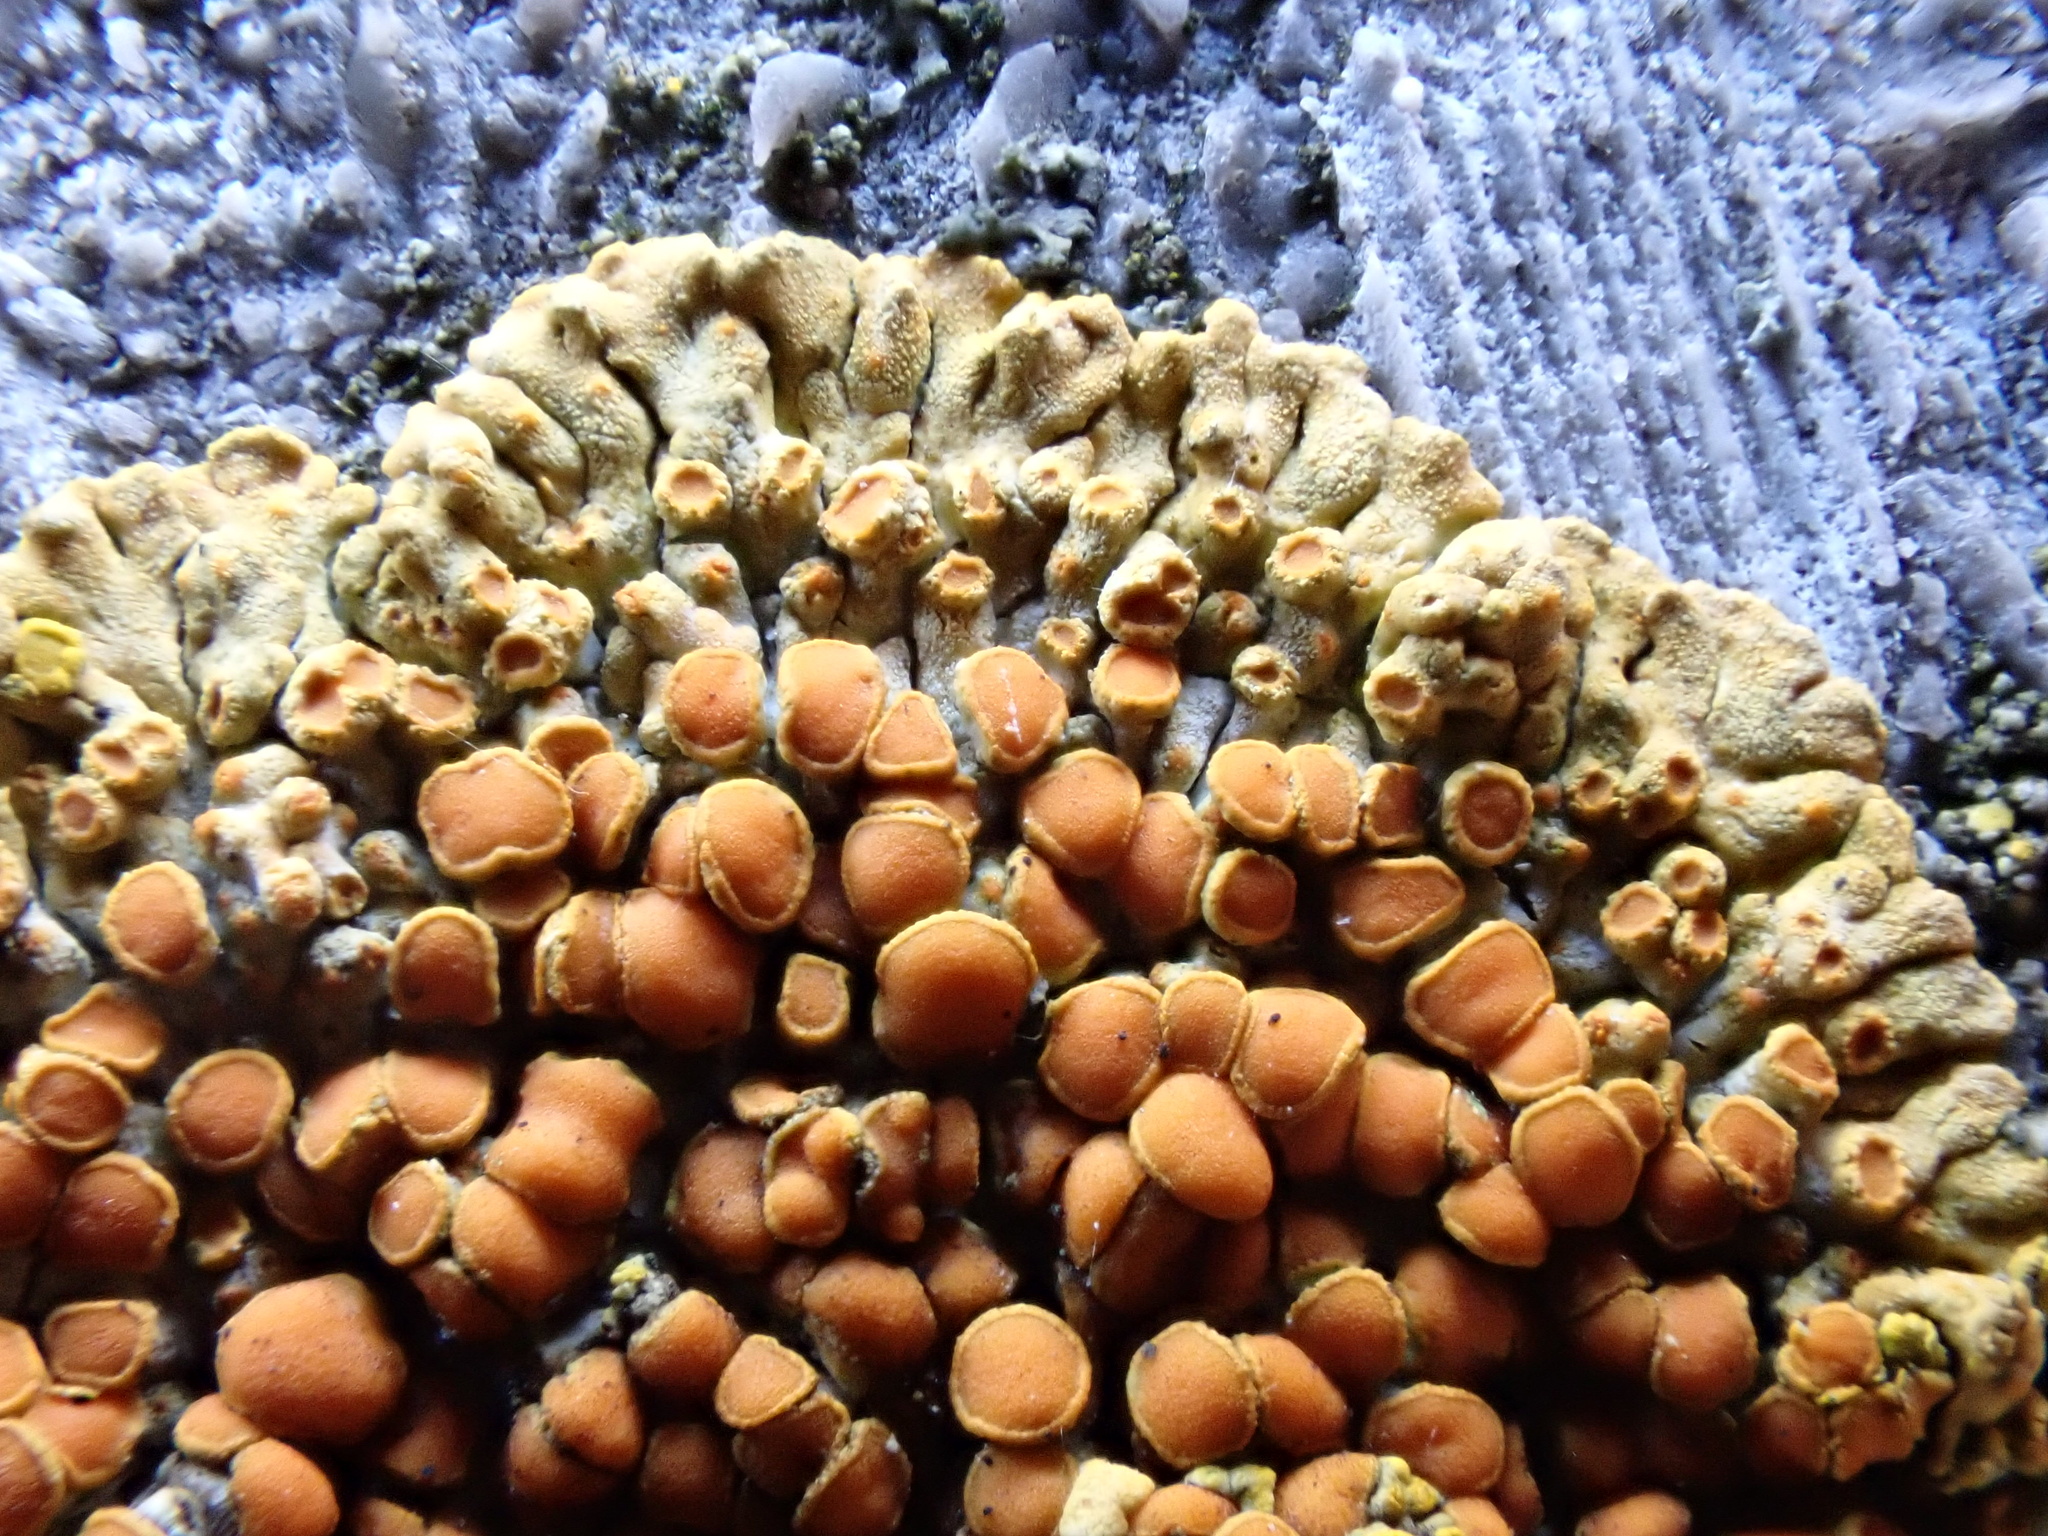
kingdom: Fungi
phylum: Ascomycota
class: Lecanoromycetes
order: Teloschistales
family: Teloschistaceae
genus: Calogaya
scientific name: Calogaya pusilla
